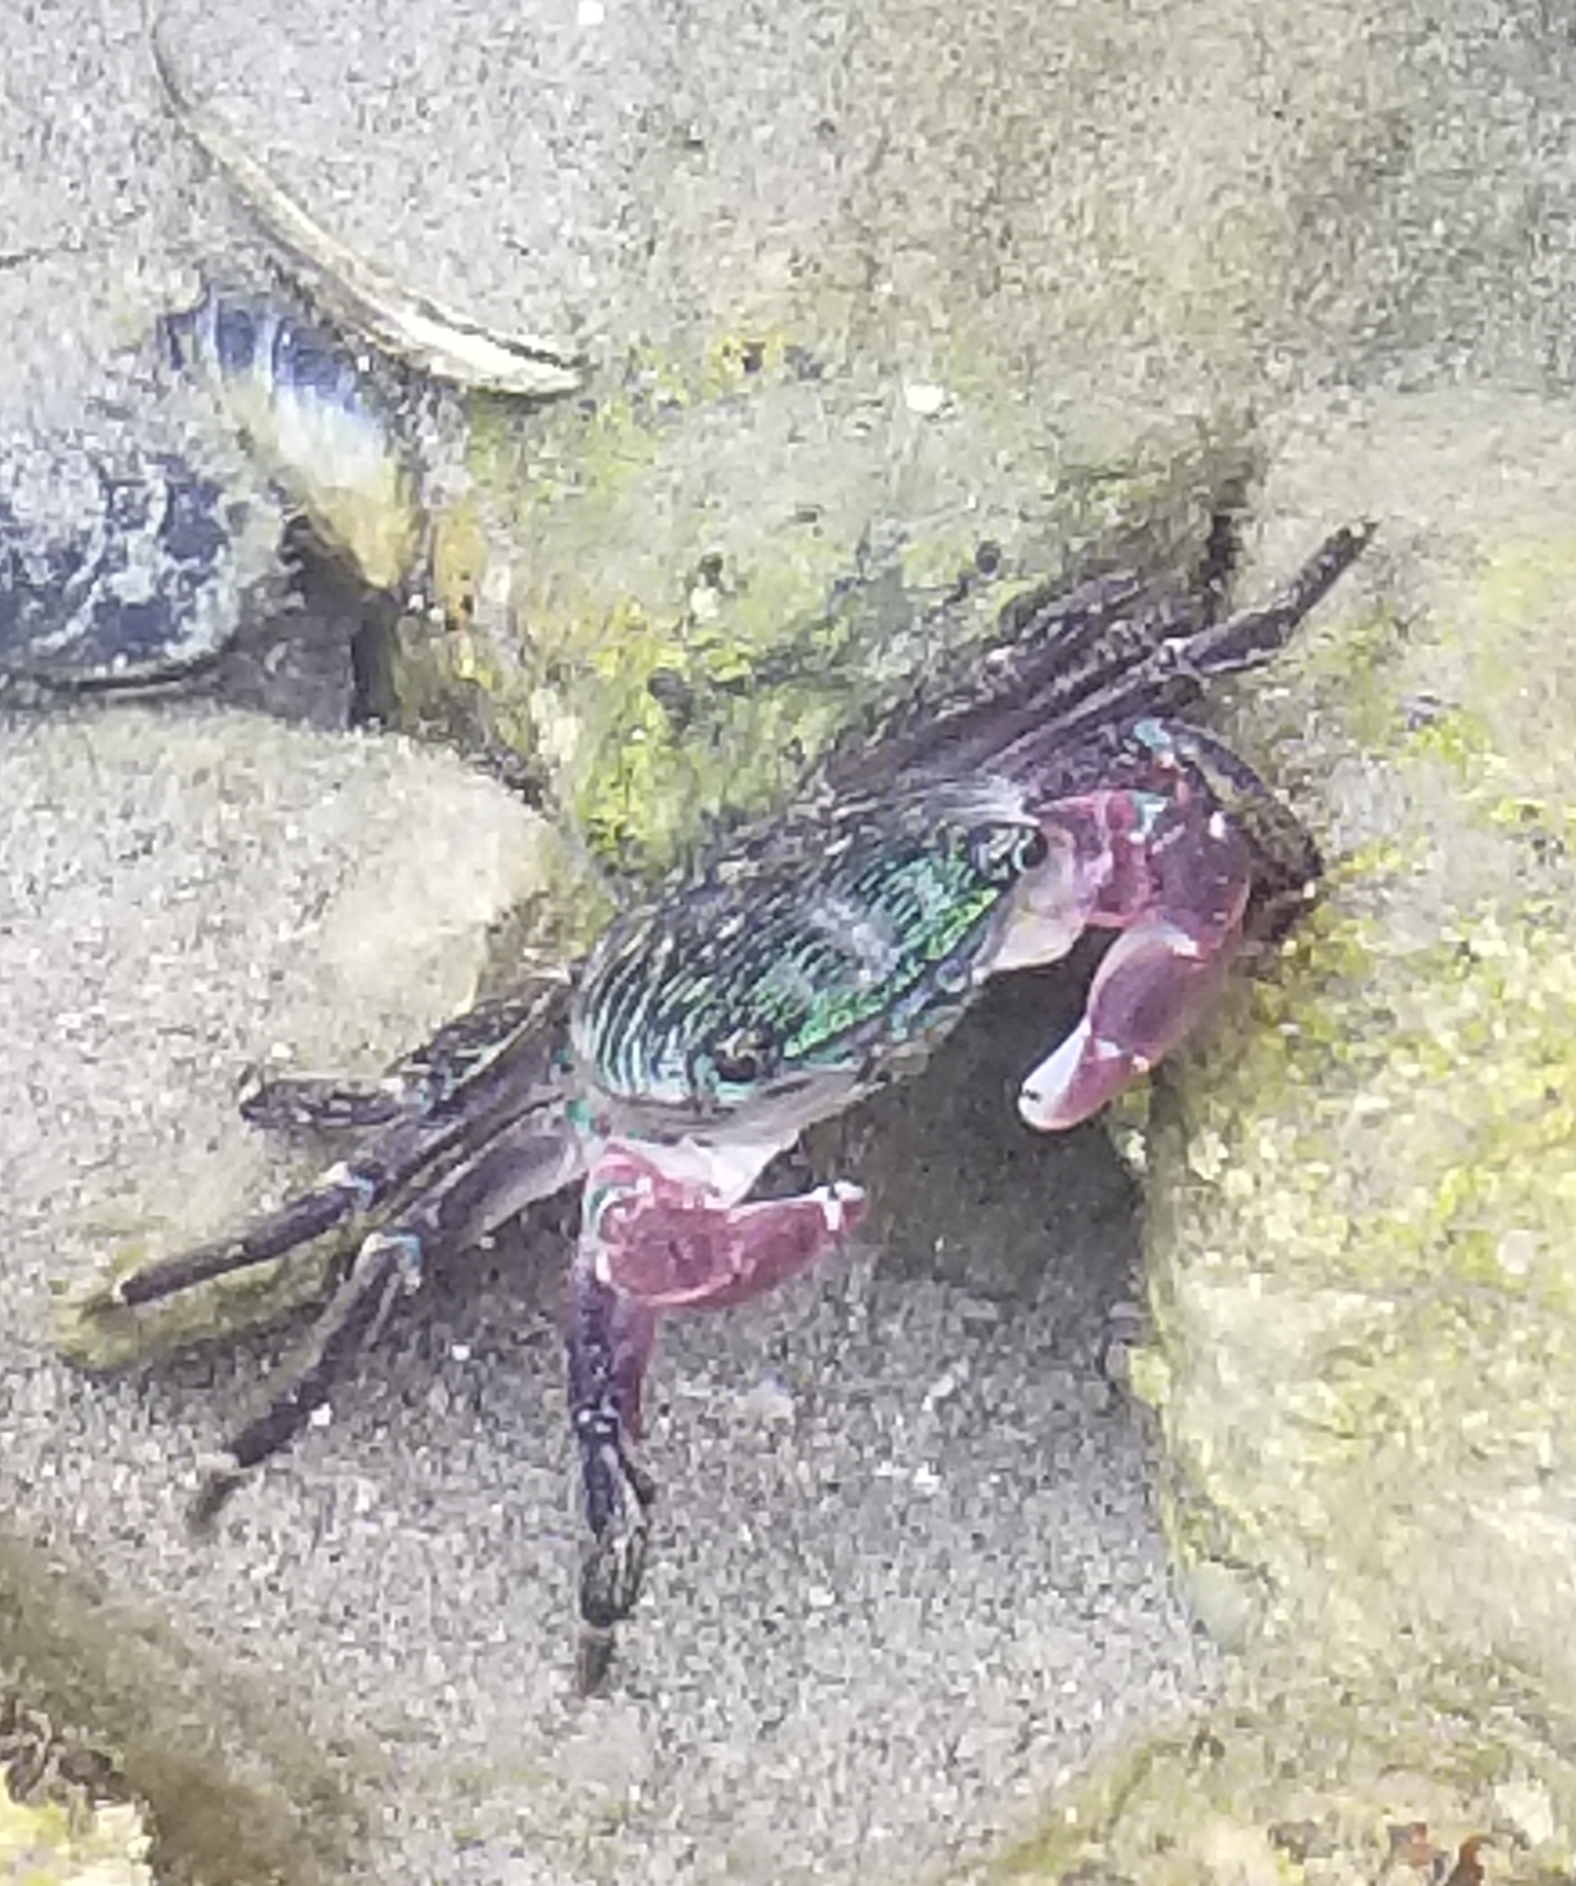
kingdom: Animalia
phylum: Arthropoda
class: Malacostraca
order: Decapoda
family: Grapsidae
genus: Pachygrapsus
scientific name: Pachygrapsus crassipes
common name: Striped shore crab
